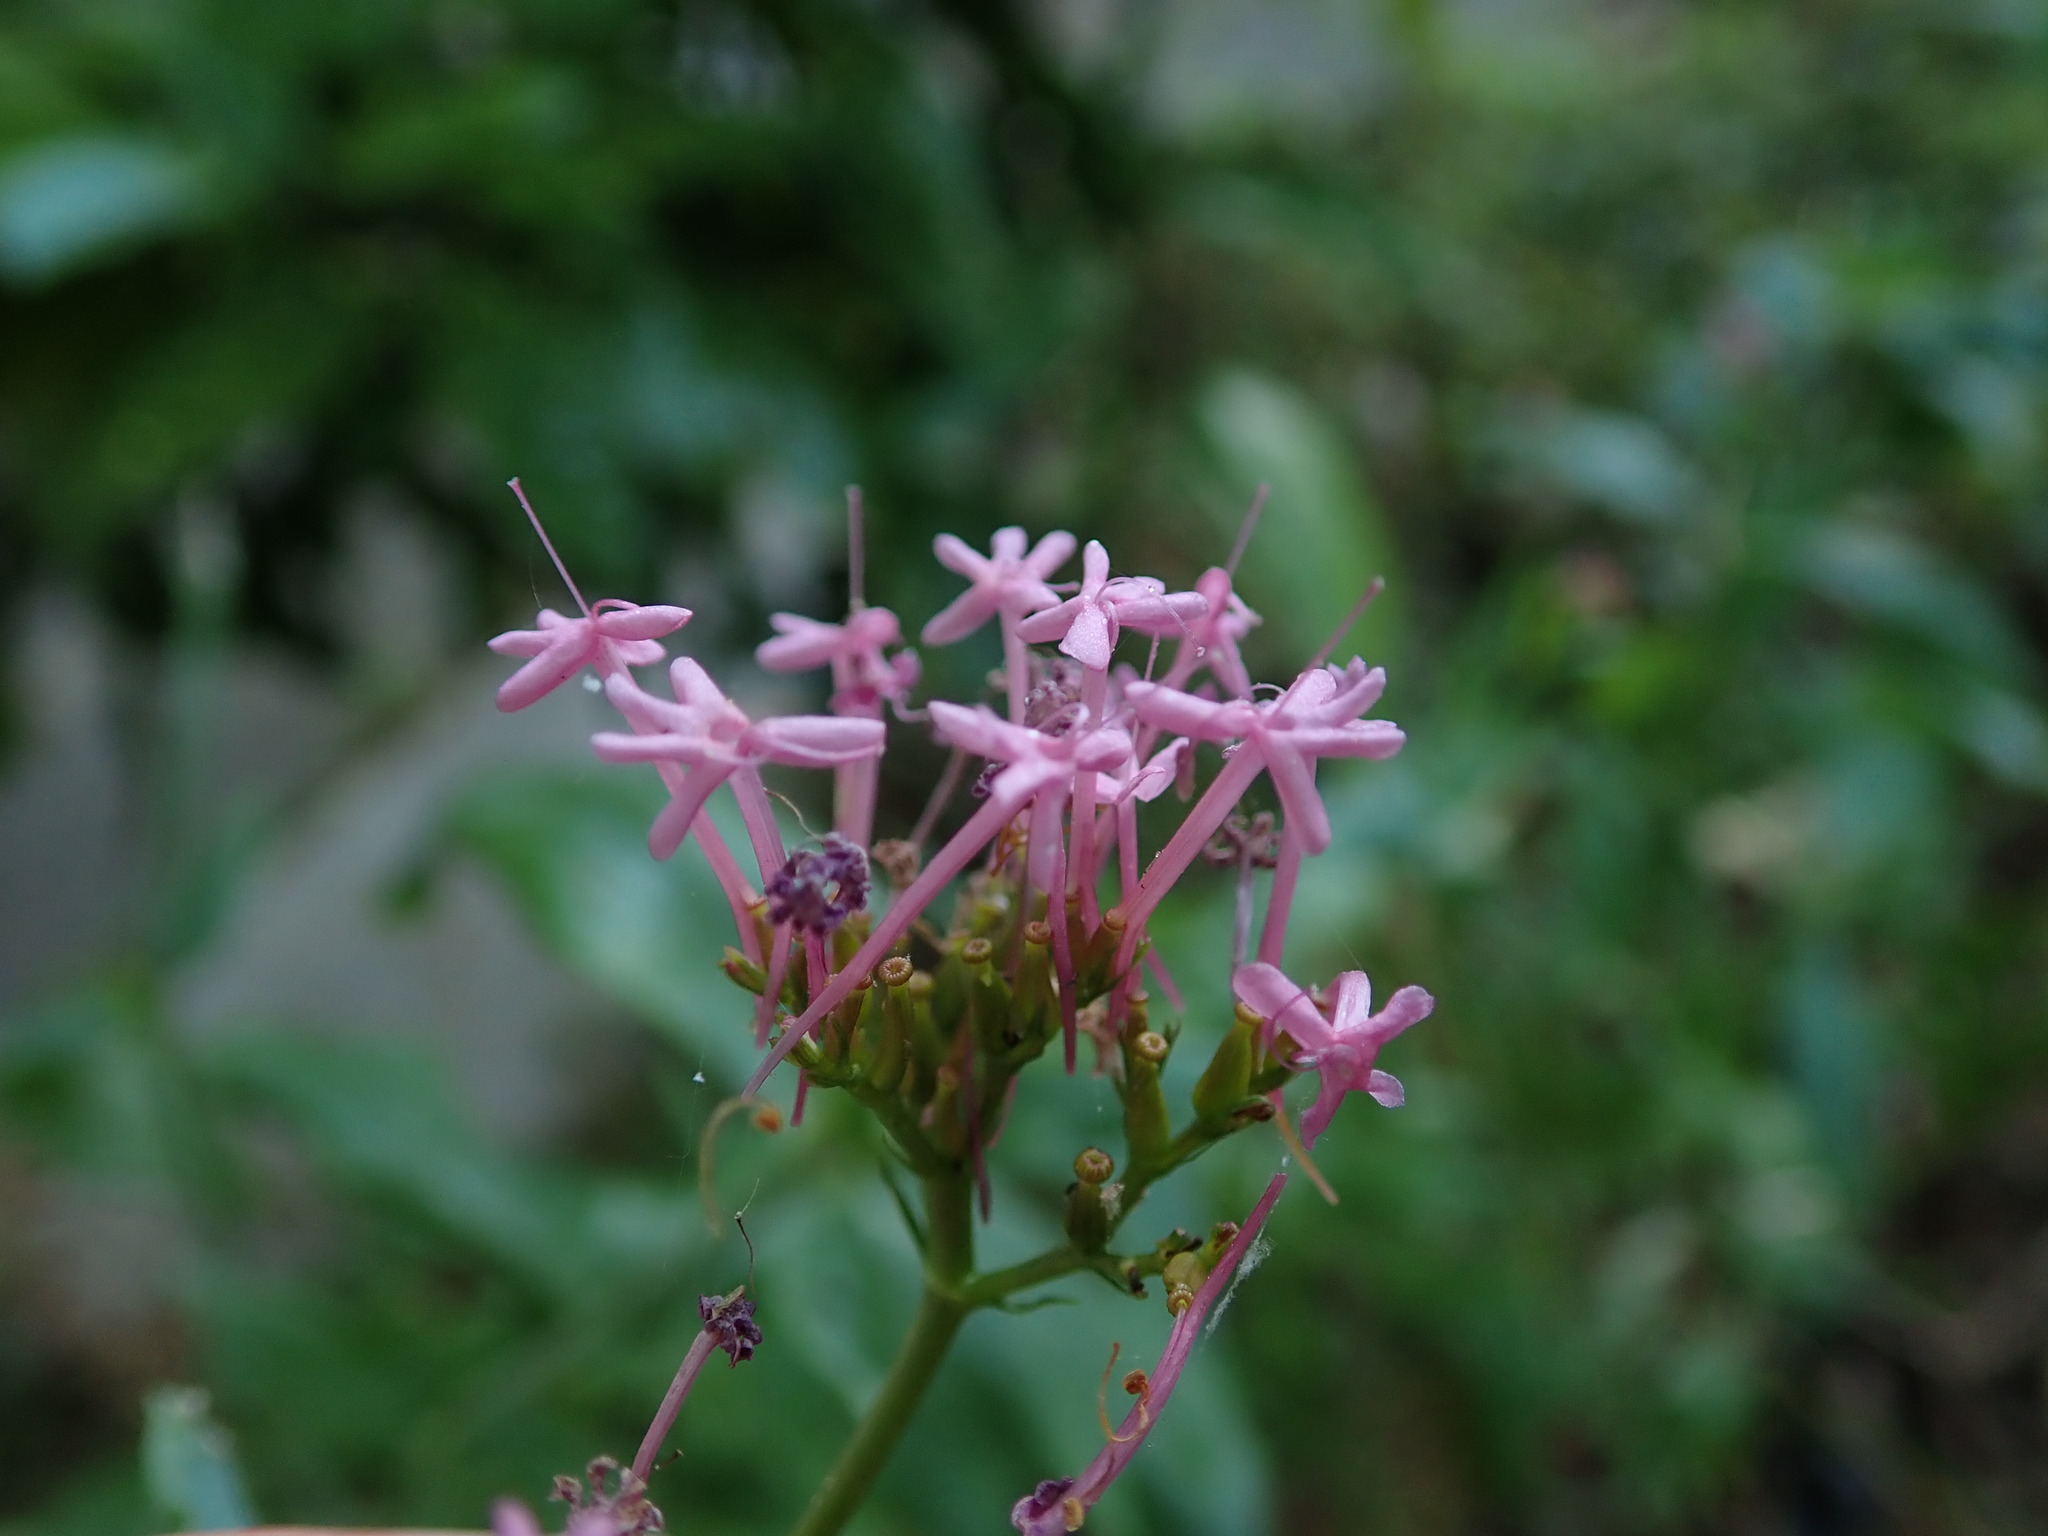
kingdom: Plantae
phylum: Tracheophyta
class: Magnoliopsida
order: Dipsacales
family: Caprifoliaceae
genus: Centranthus
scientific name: Centranthus ruber
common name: Red valerian
